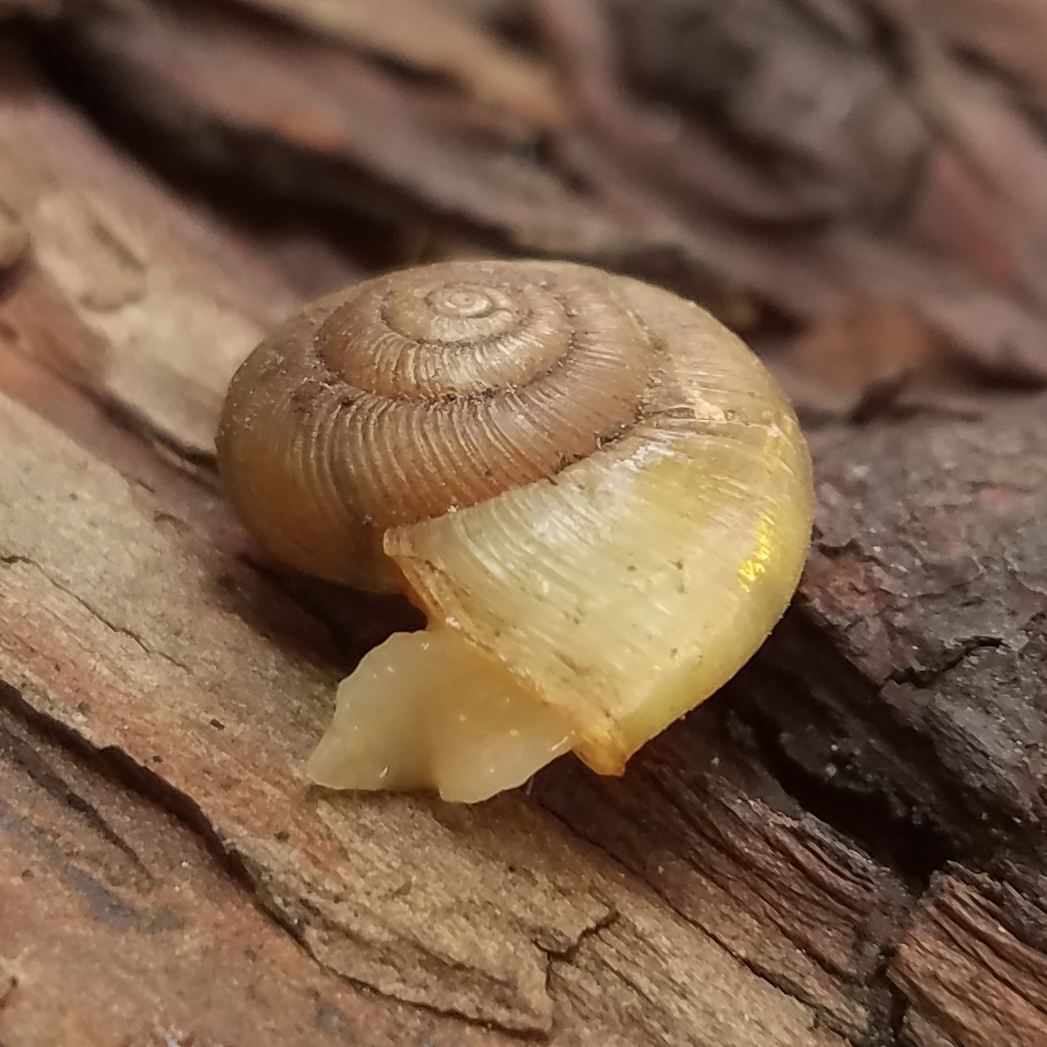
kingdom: Animalia
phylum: Mollusca
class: Gastropoda
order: Stylommatophora
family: Haplotrematidae
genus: Ancotrema
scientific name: Ancotrema sportella
